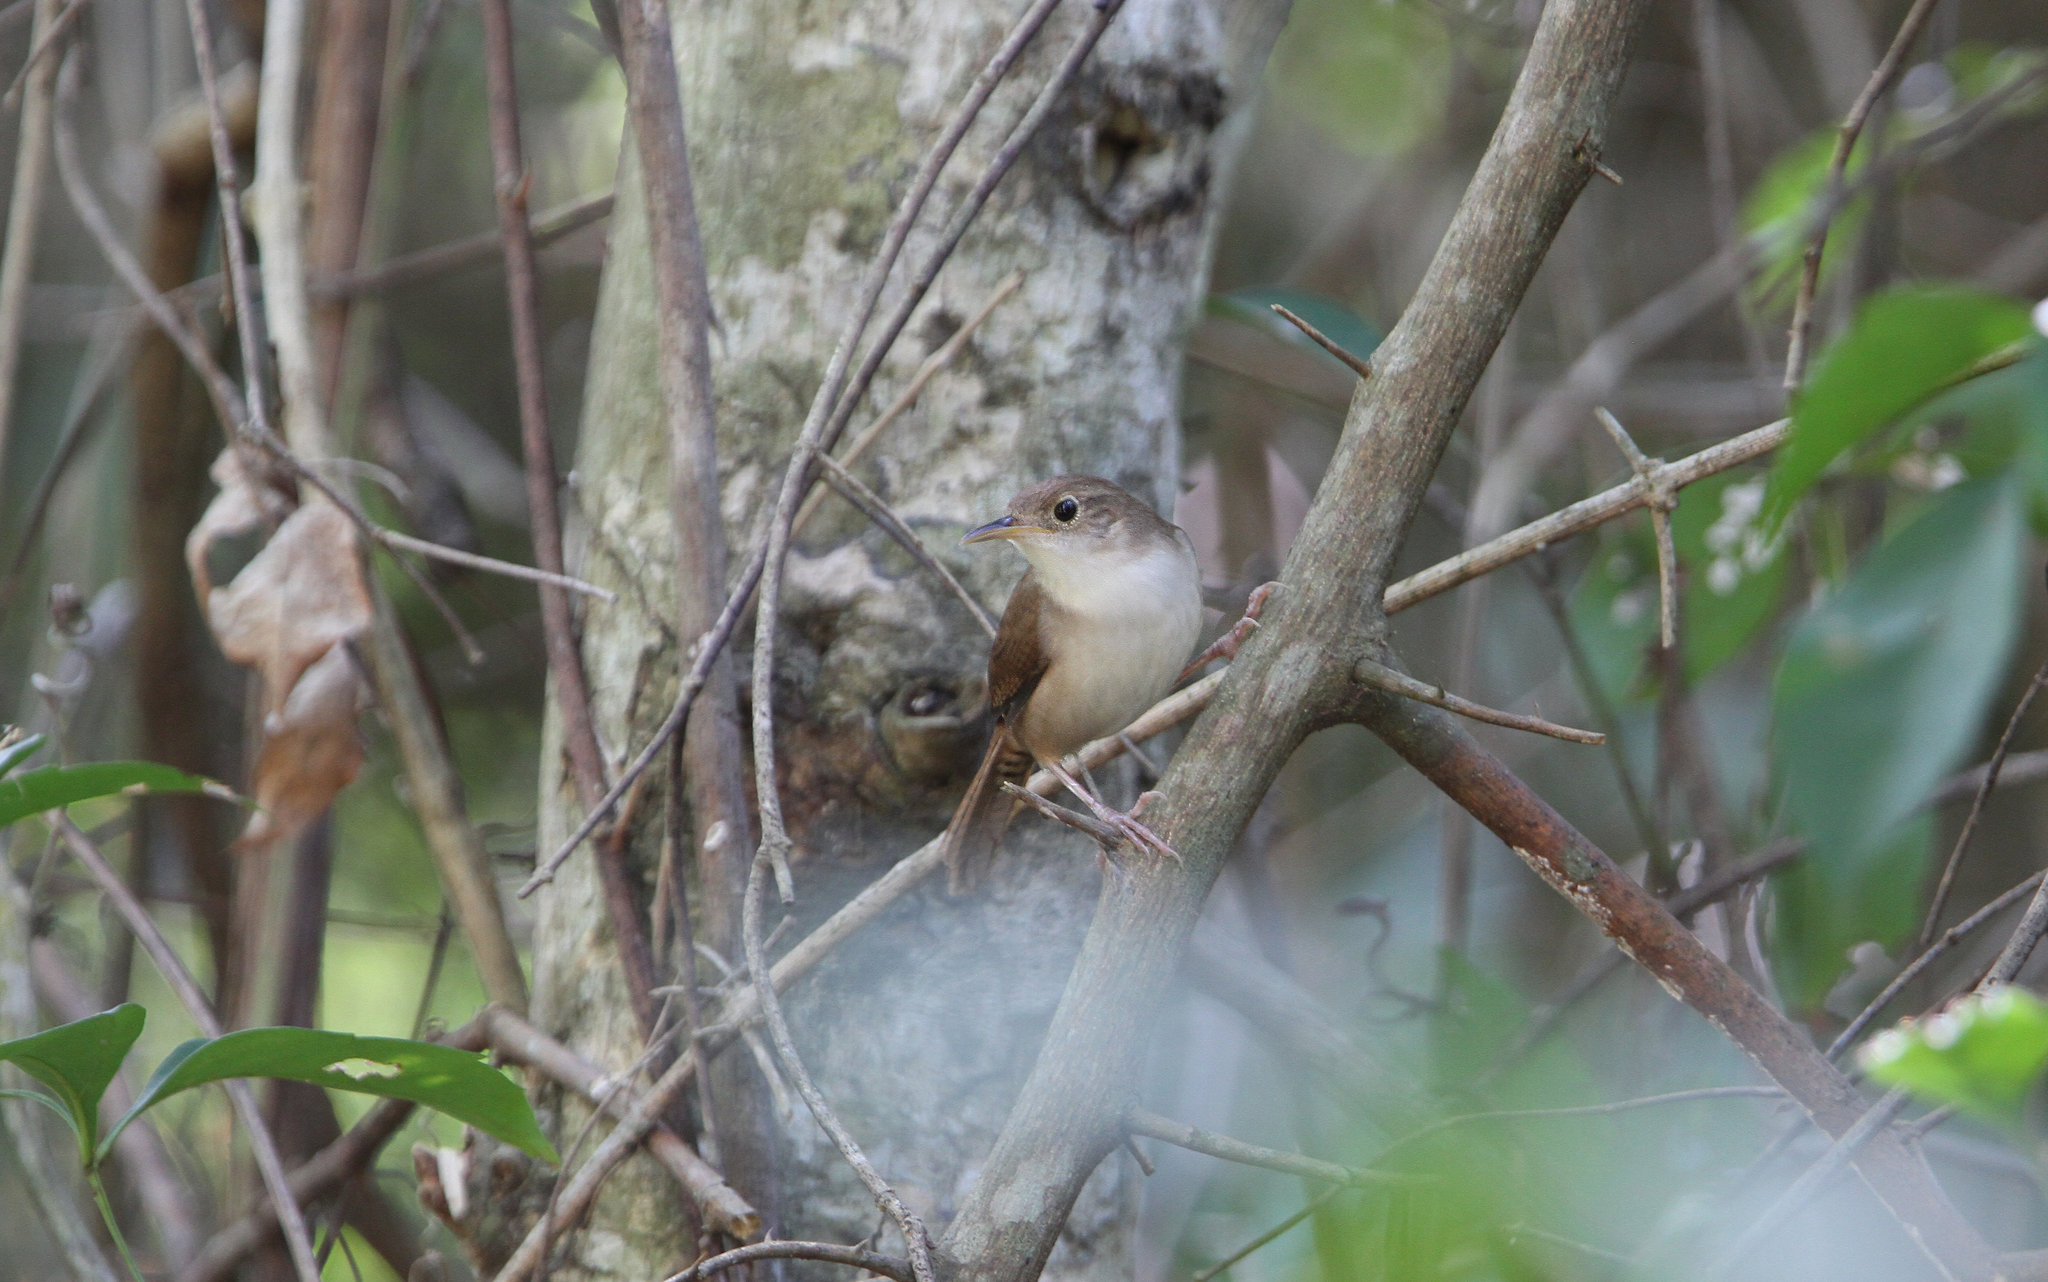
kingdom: Animalia
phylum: Chordata
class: Aves
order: Passeriformes
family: Troglodytidae
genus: Troglodytes
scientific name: Troglodytes aedon
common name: House wren
